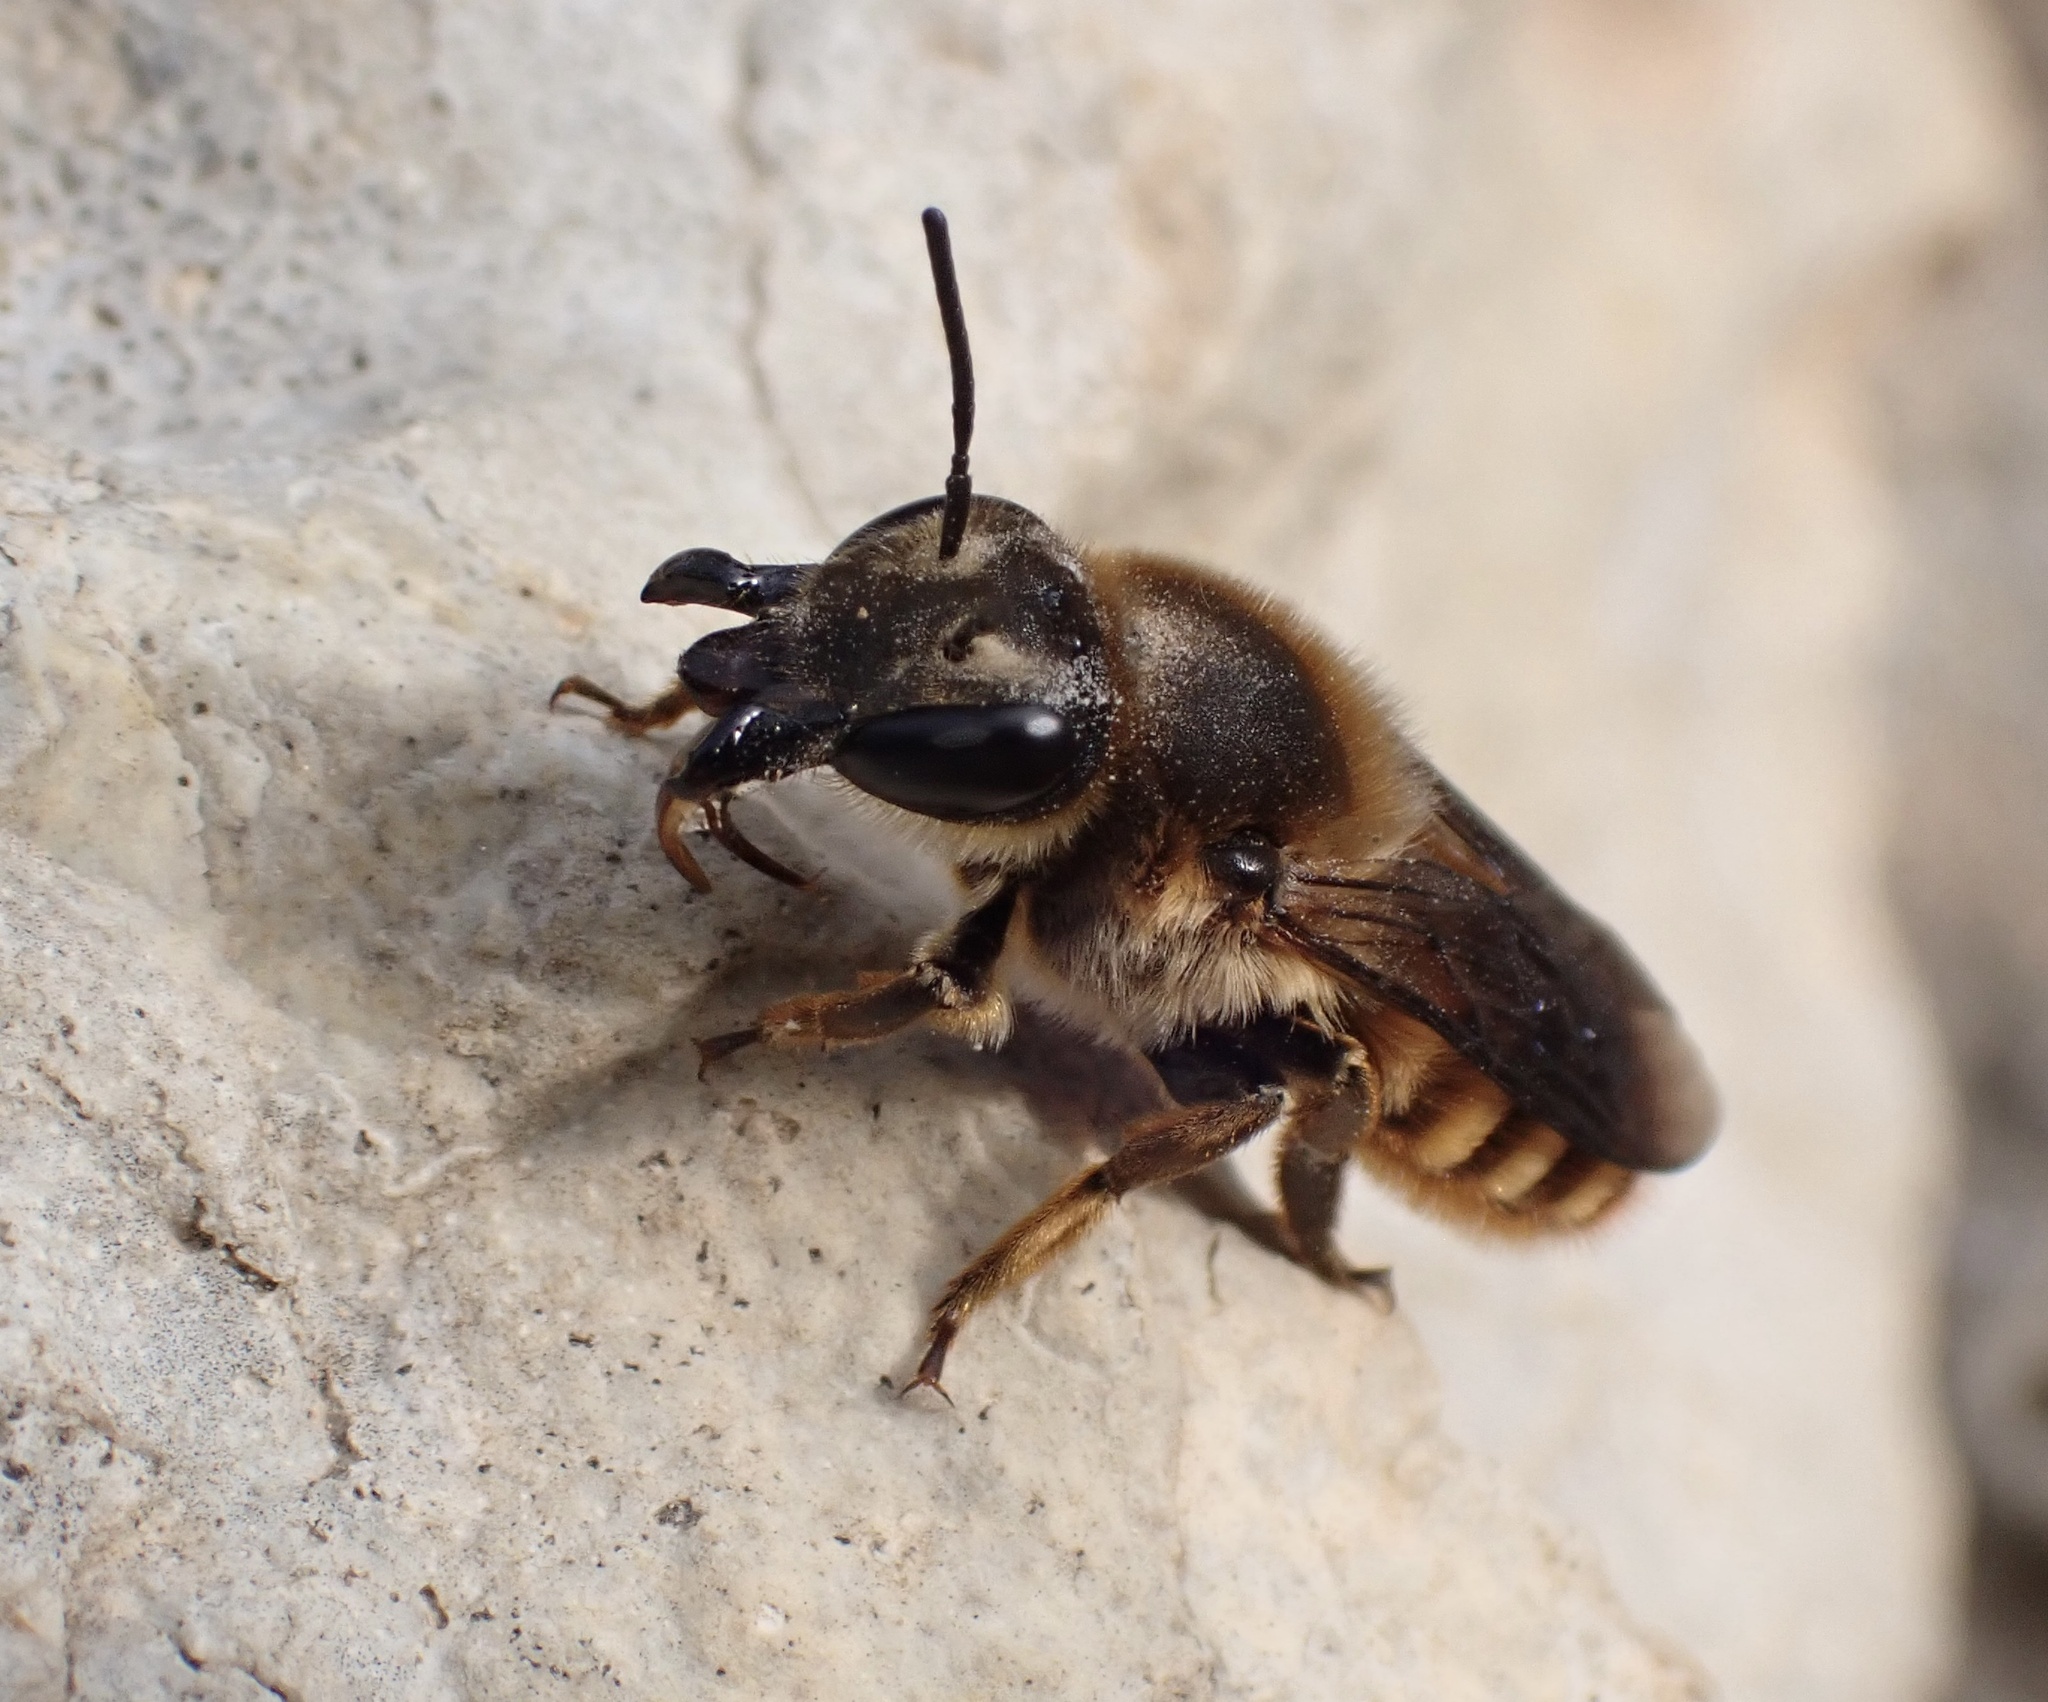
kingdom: Animalia
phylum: Arthropoda
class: Insecta
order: Hymenoptera
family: Megachilidae
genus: Megachile
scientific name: Megachile roeweri
